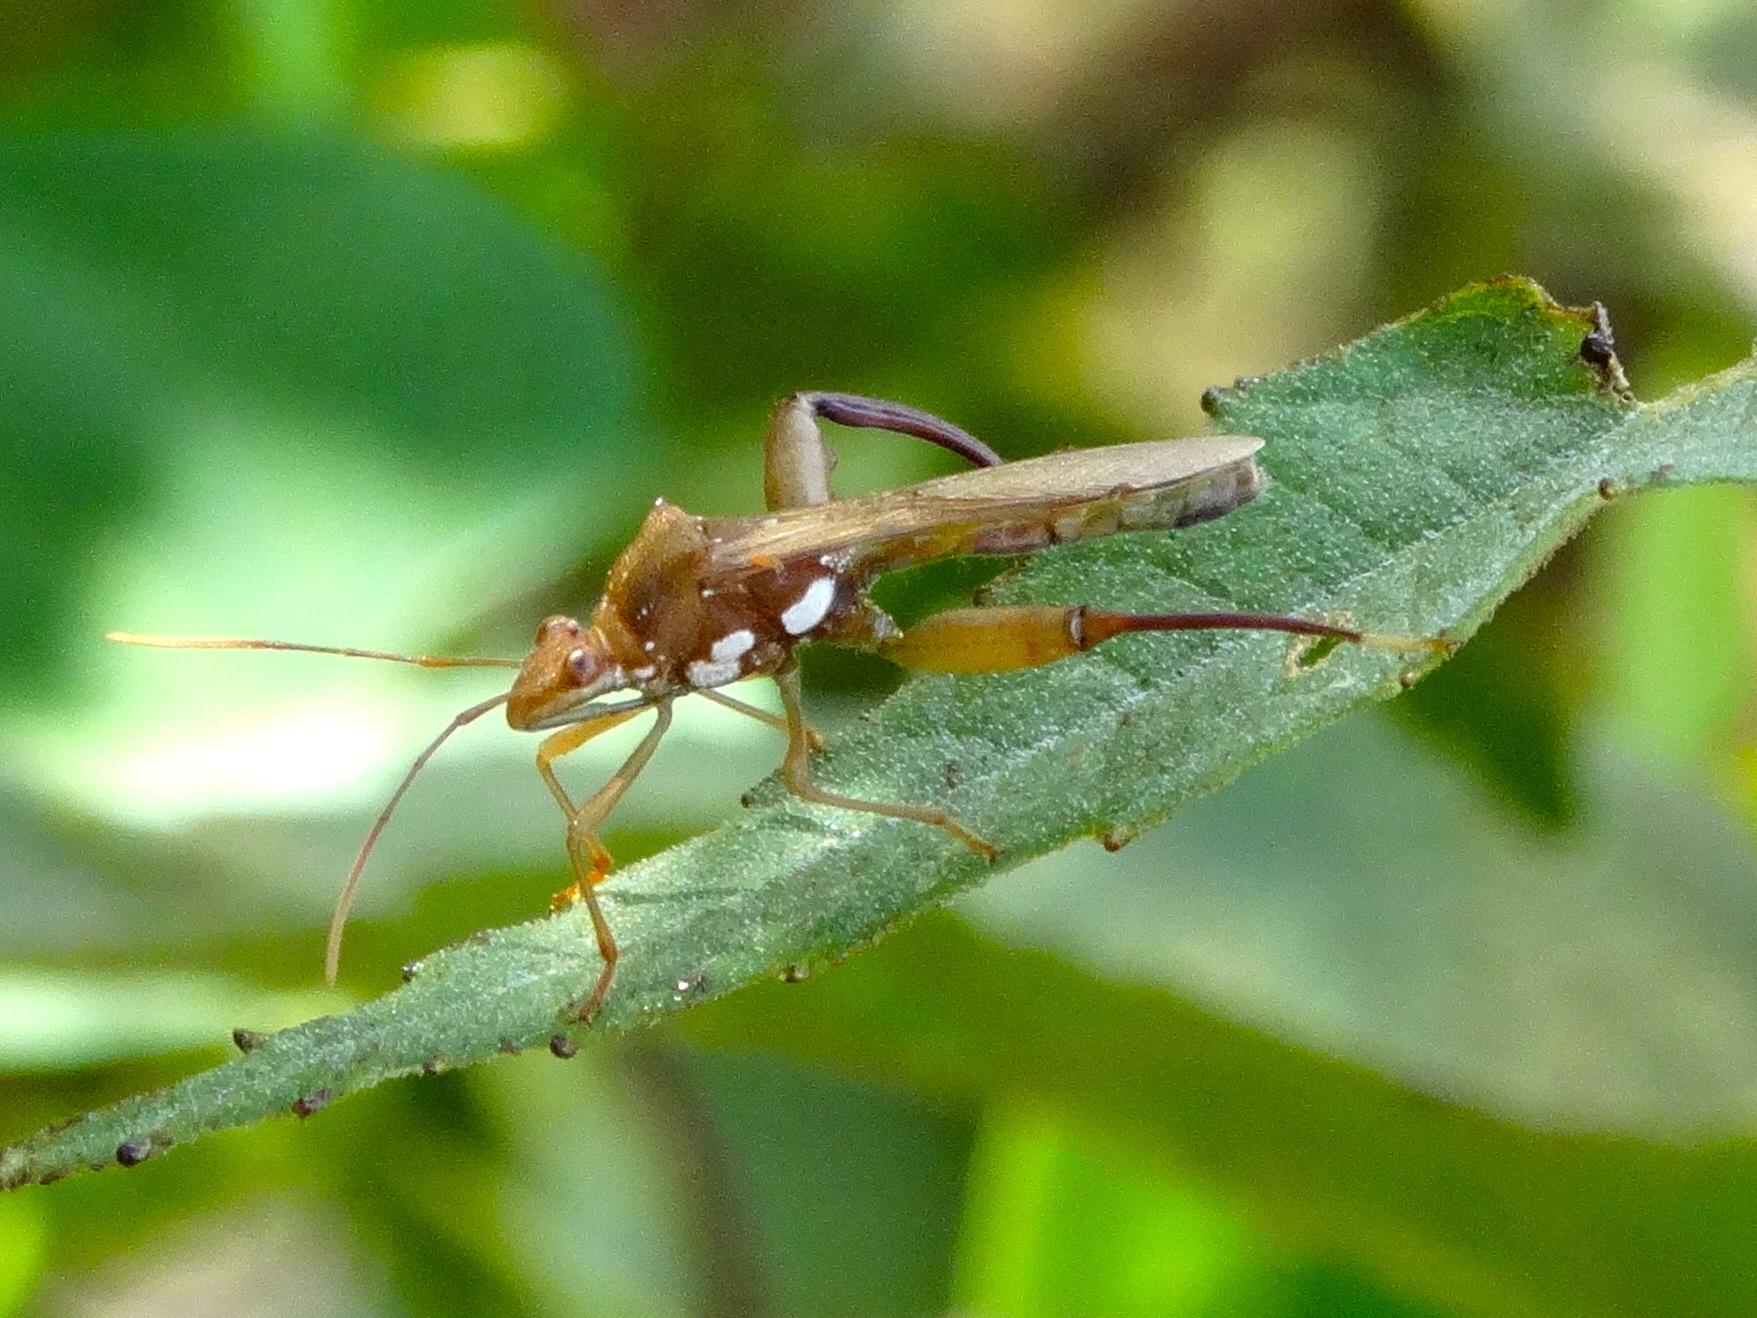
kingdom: Animalia
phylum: Arthropoda
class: Insecta
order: Hemiptera
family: Alydidae
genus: Hyalymenus
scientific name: Hyalymenus
